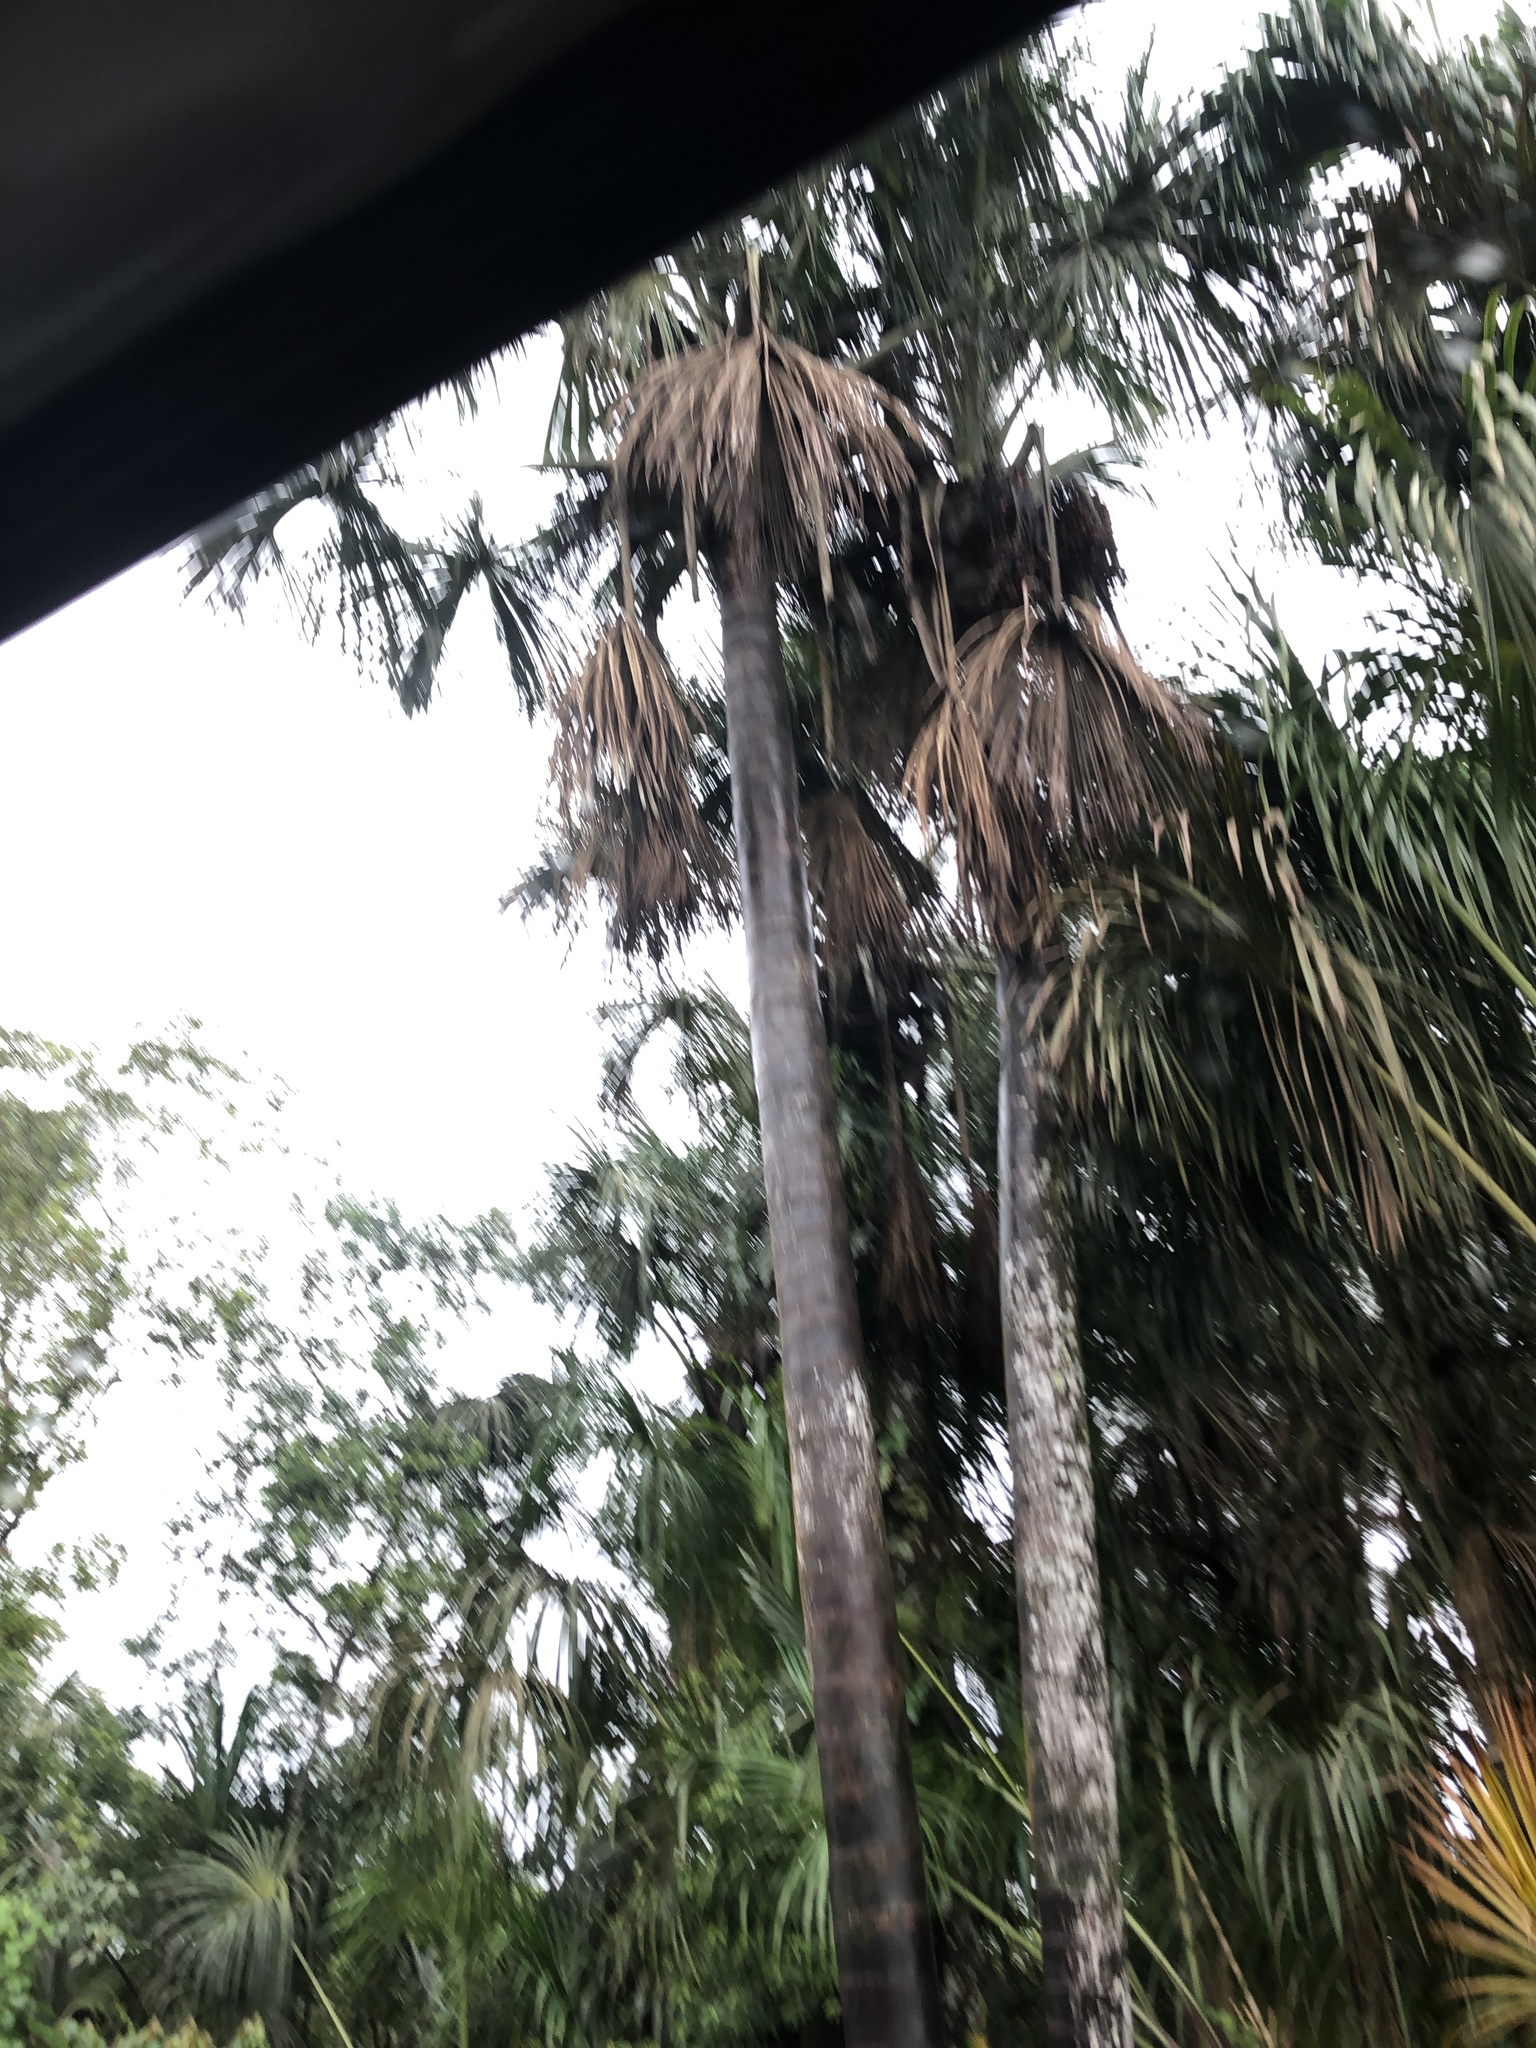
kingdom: Plantae
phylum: Tracheophyta
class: Liliopsida
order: Arecales
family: Arecaceae
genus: Mauritia
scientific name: Mauritia flexuosa
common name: Tree-of-life
